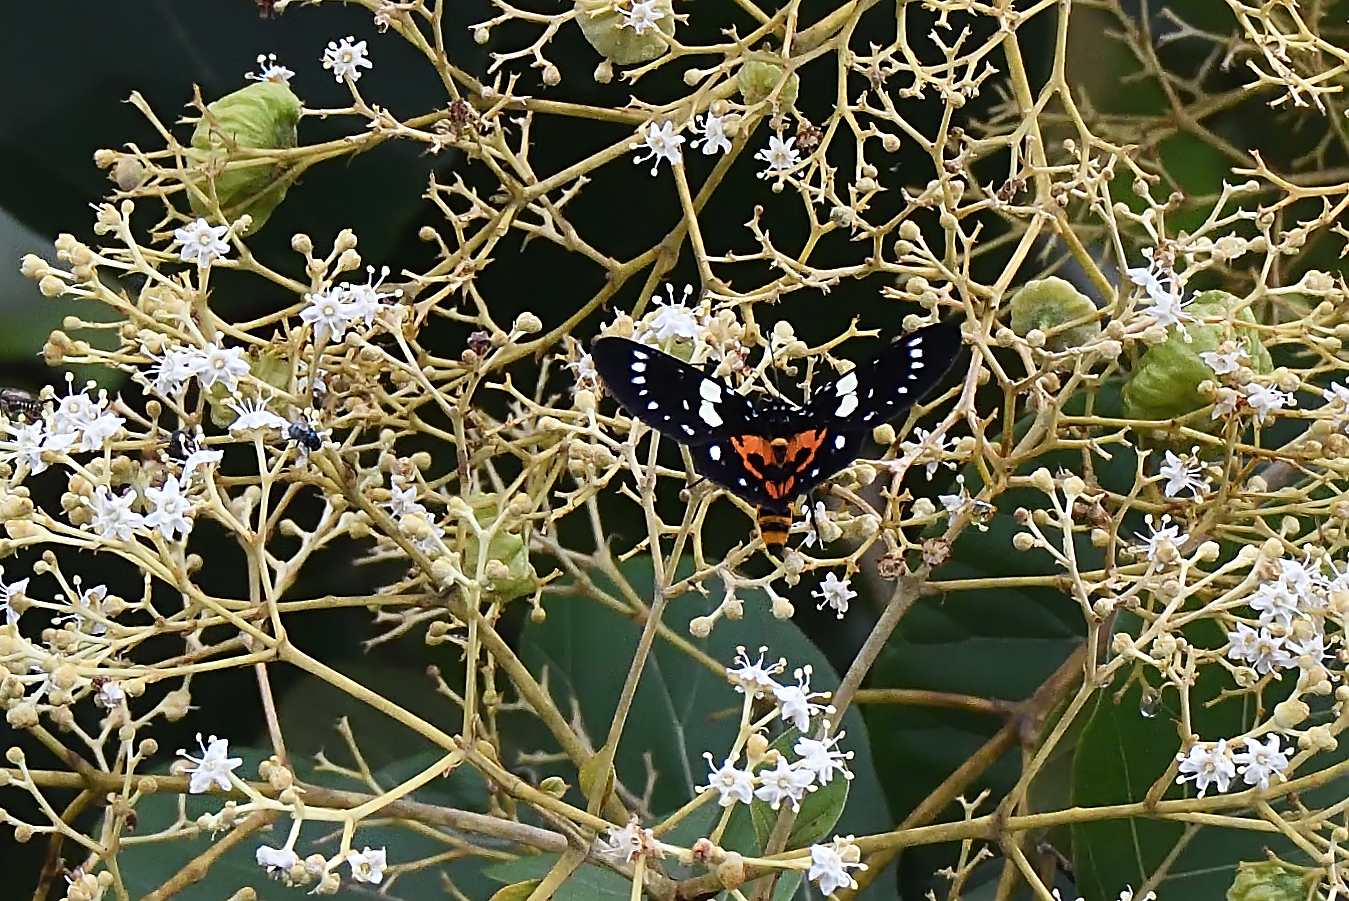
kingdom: Animalia
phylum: Arthropoda
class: Insecta
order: Lepidoptera
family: Noctuidae
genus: Episteme
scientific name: Episteme latimargo
